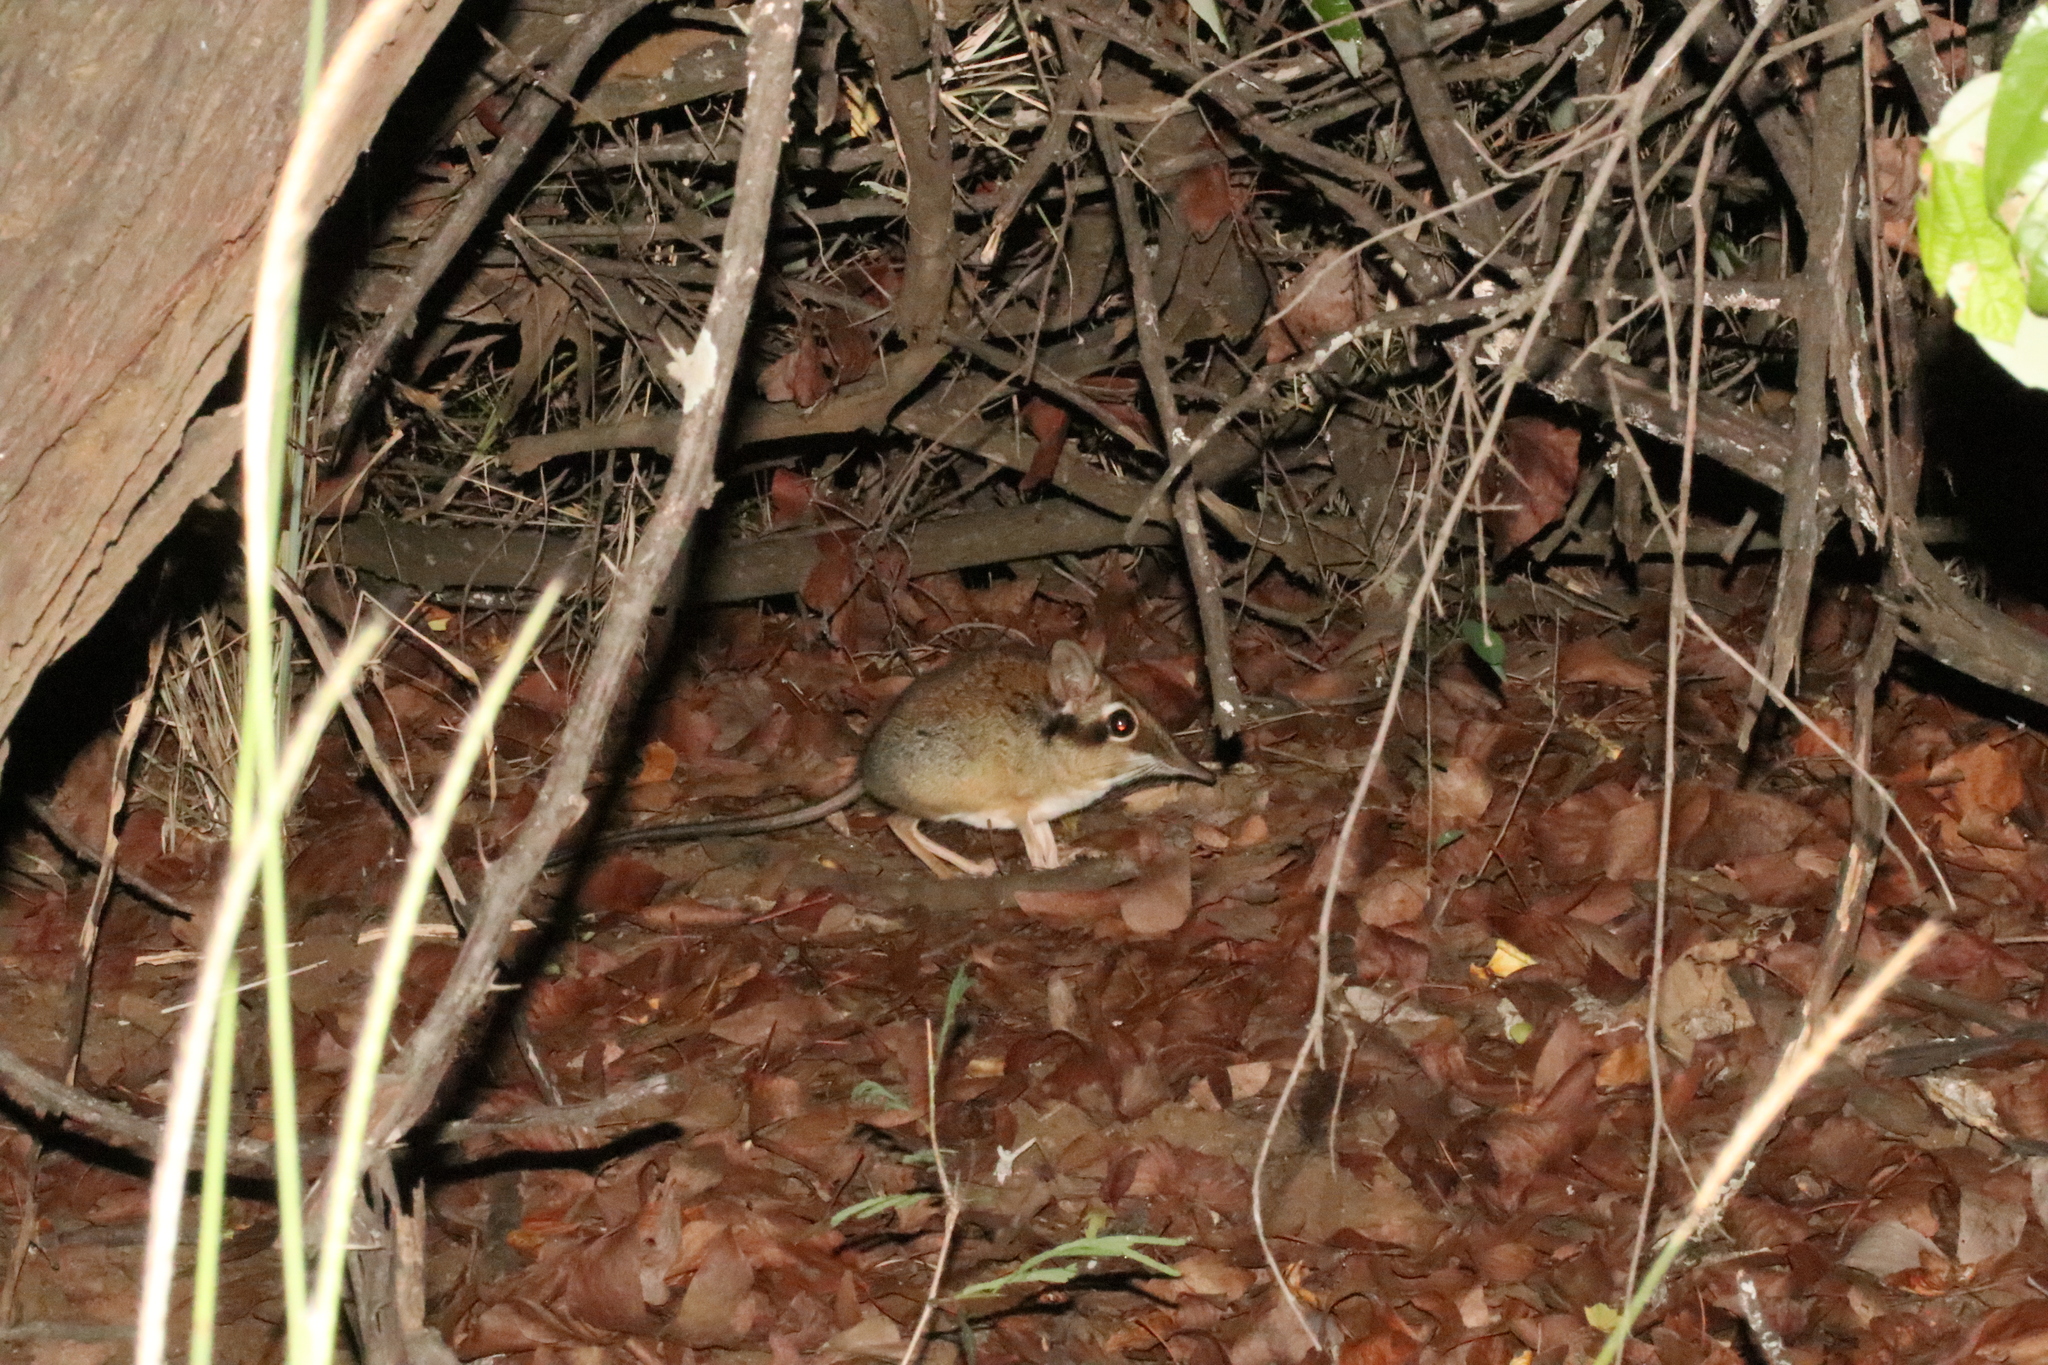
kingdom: Animalia
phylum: Chordata
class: Mammalia
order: Macroscelidea
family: Macroscelididae
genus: Petrodromus
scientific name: Petrodromus tetradactylus
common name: Four-toed elephant shrew
